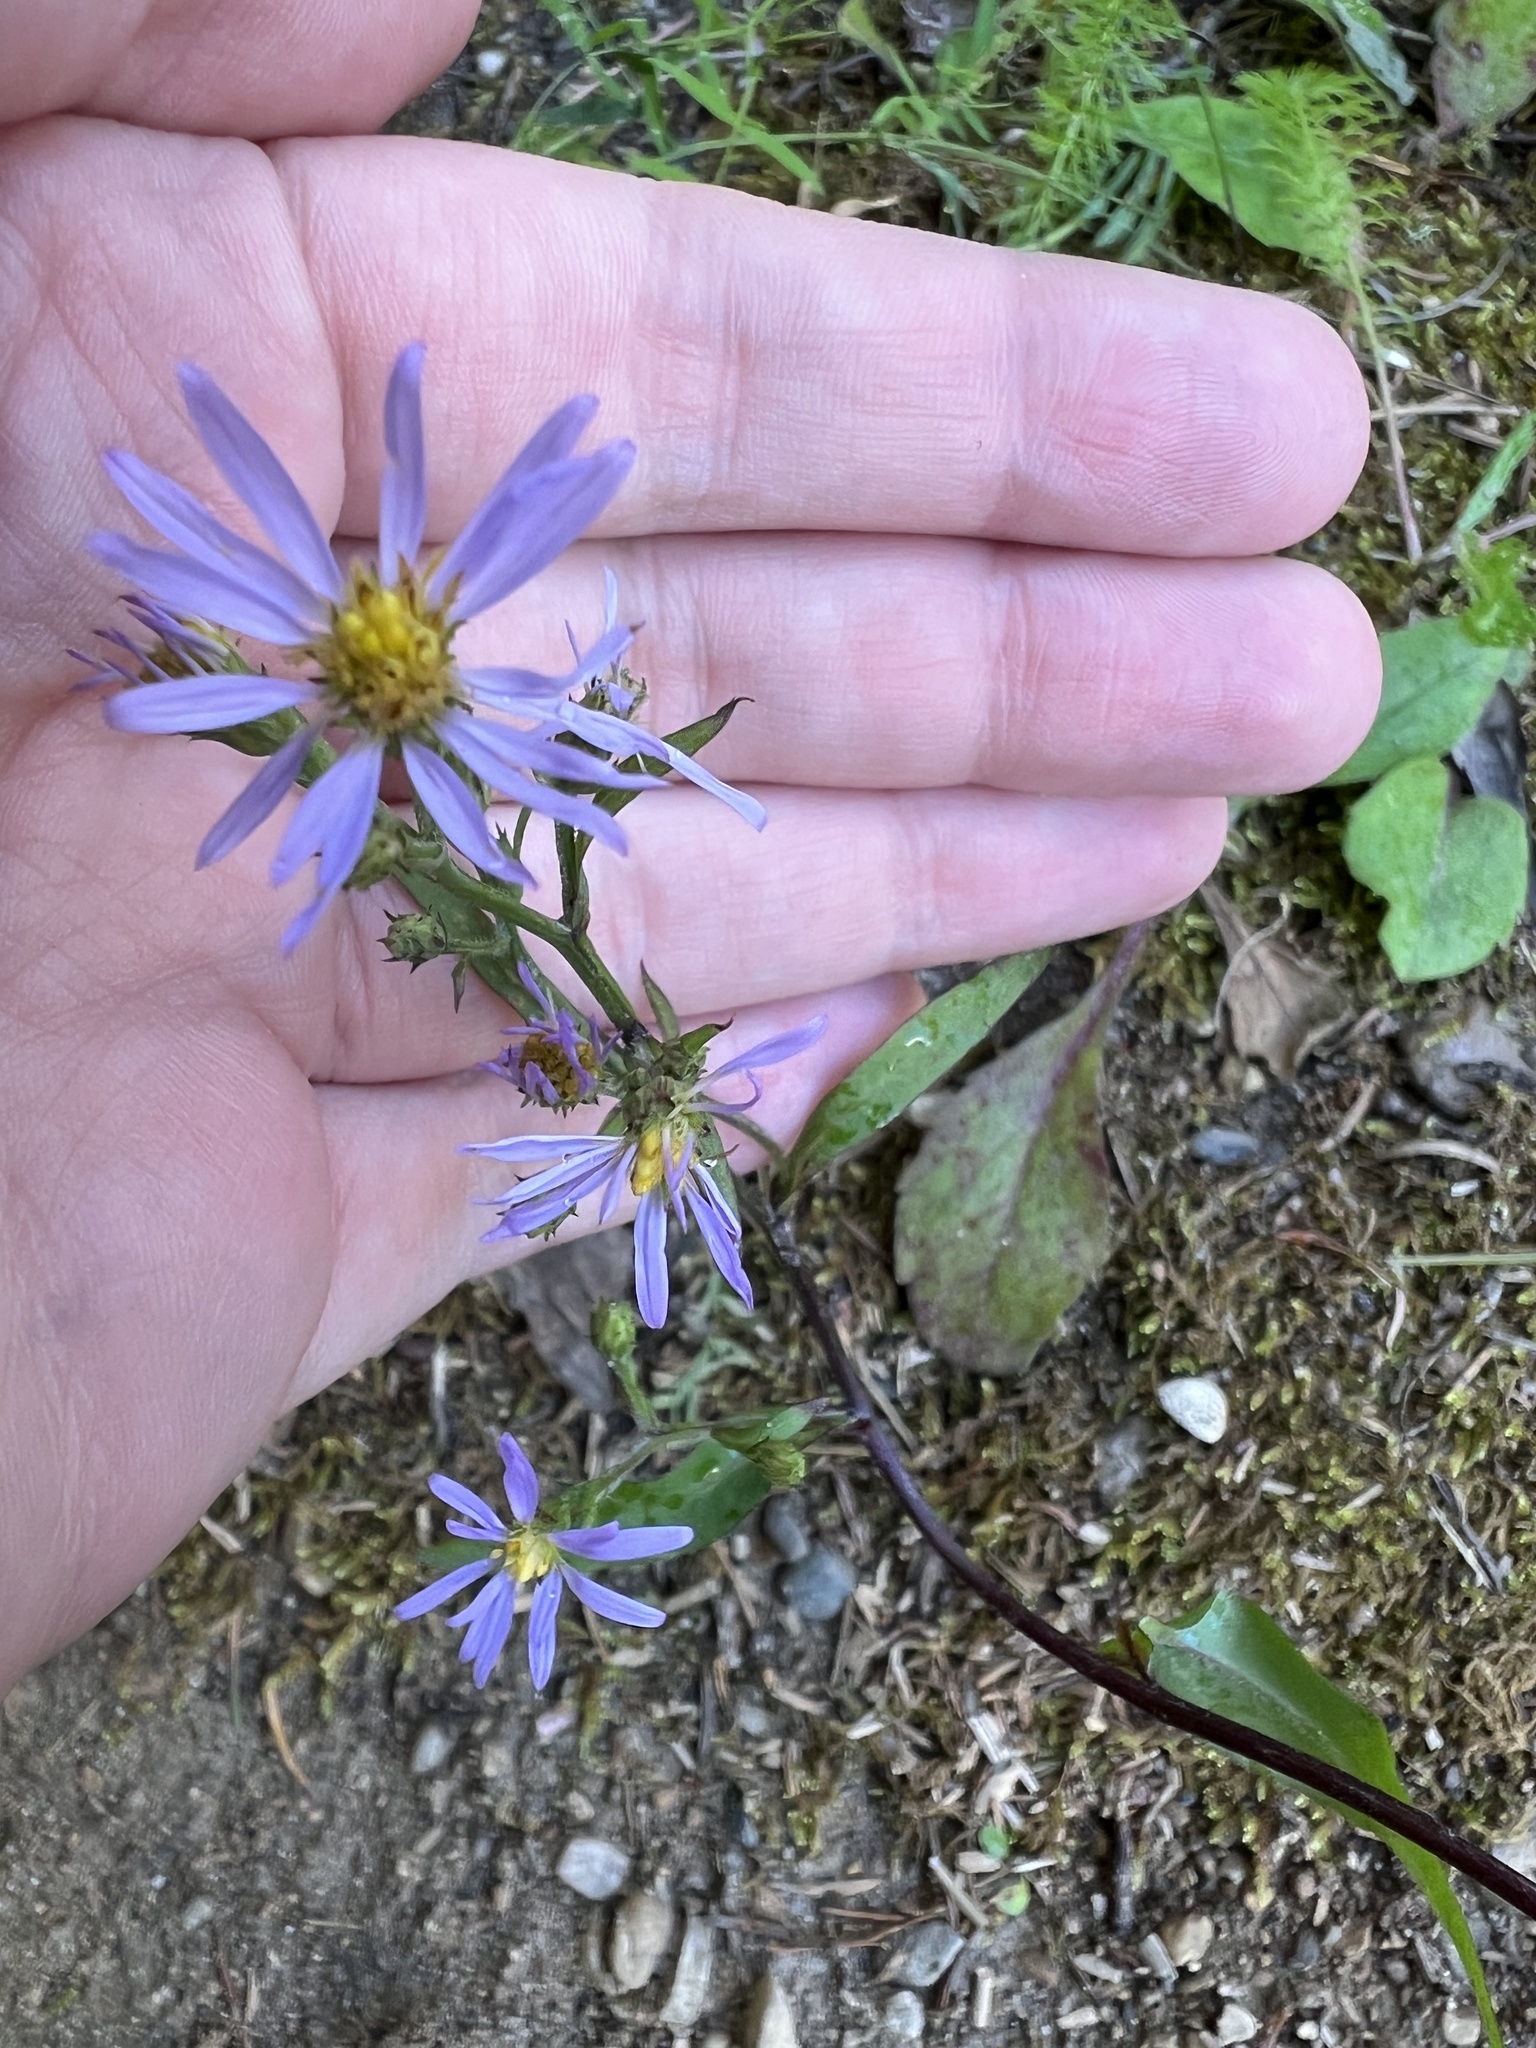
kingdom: Plantae
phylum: Tracheophyta
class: Magnoliopsida
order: Asterales
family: Asteraceae
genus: Symphyotrichum
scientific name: Symphyotrichum ciliolatum
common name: Fringed blue aster
